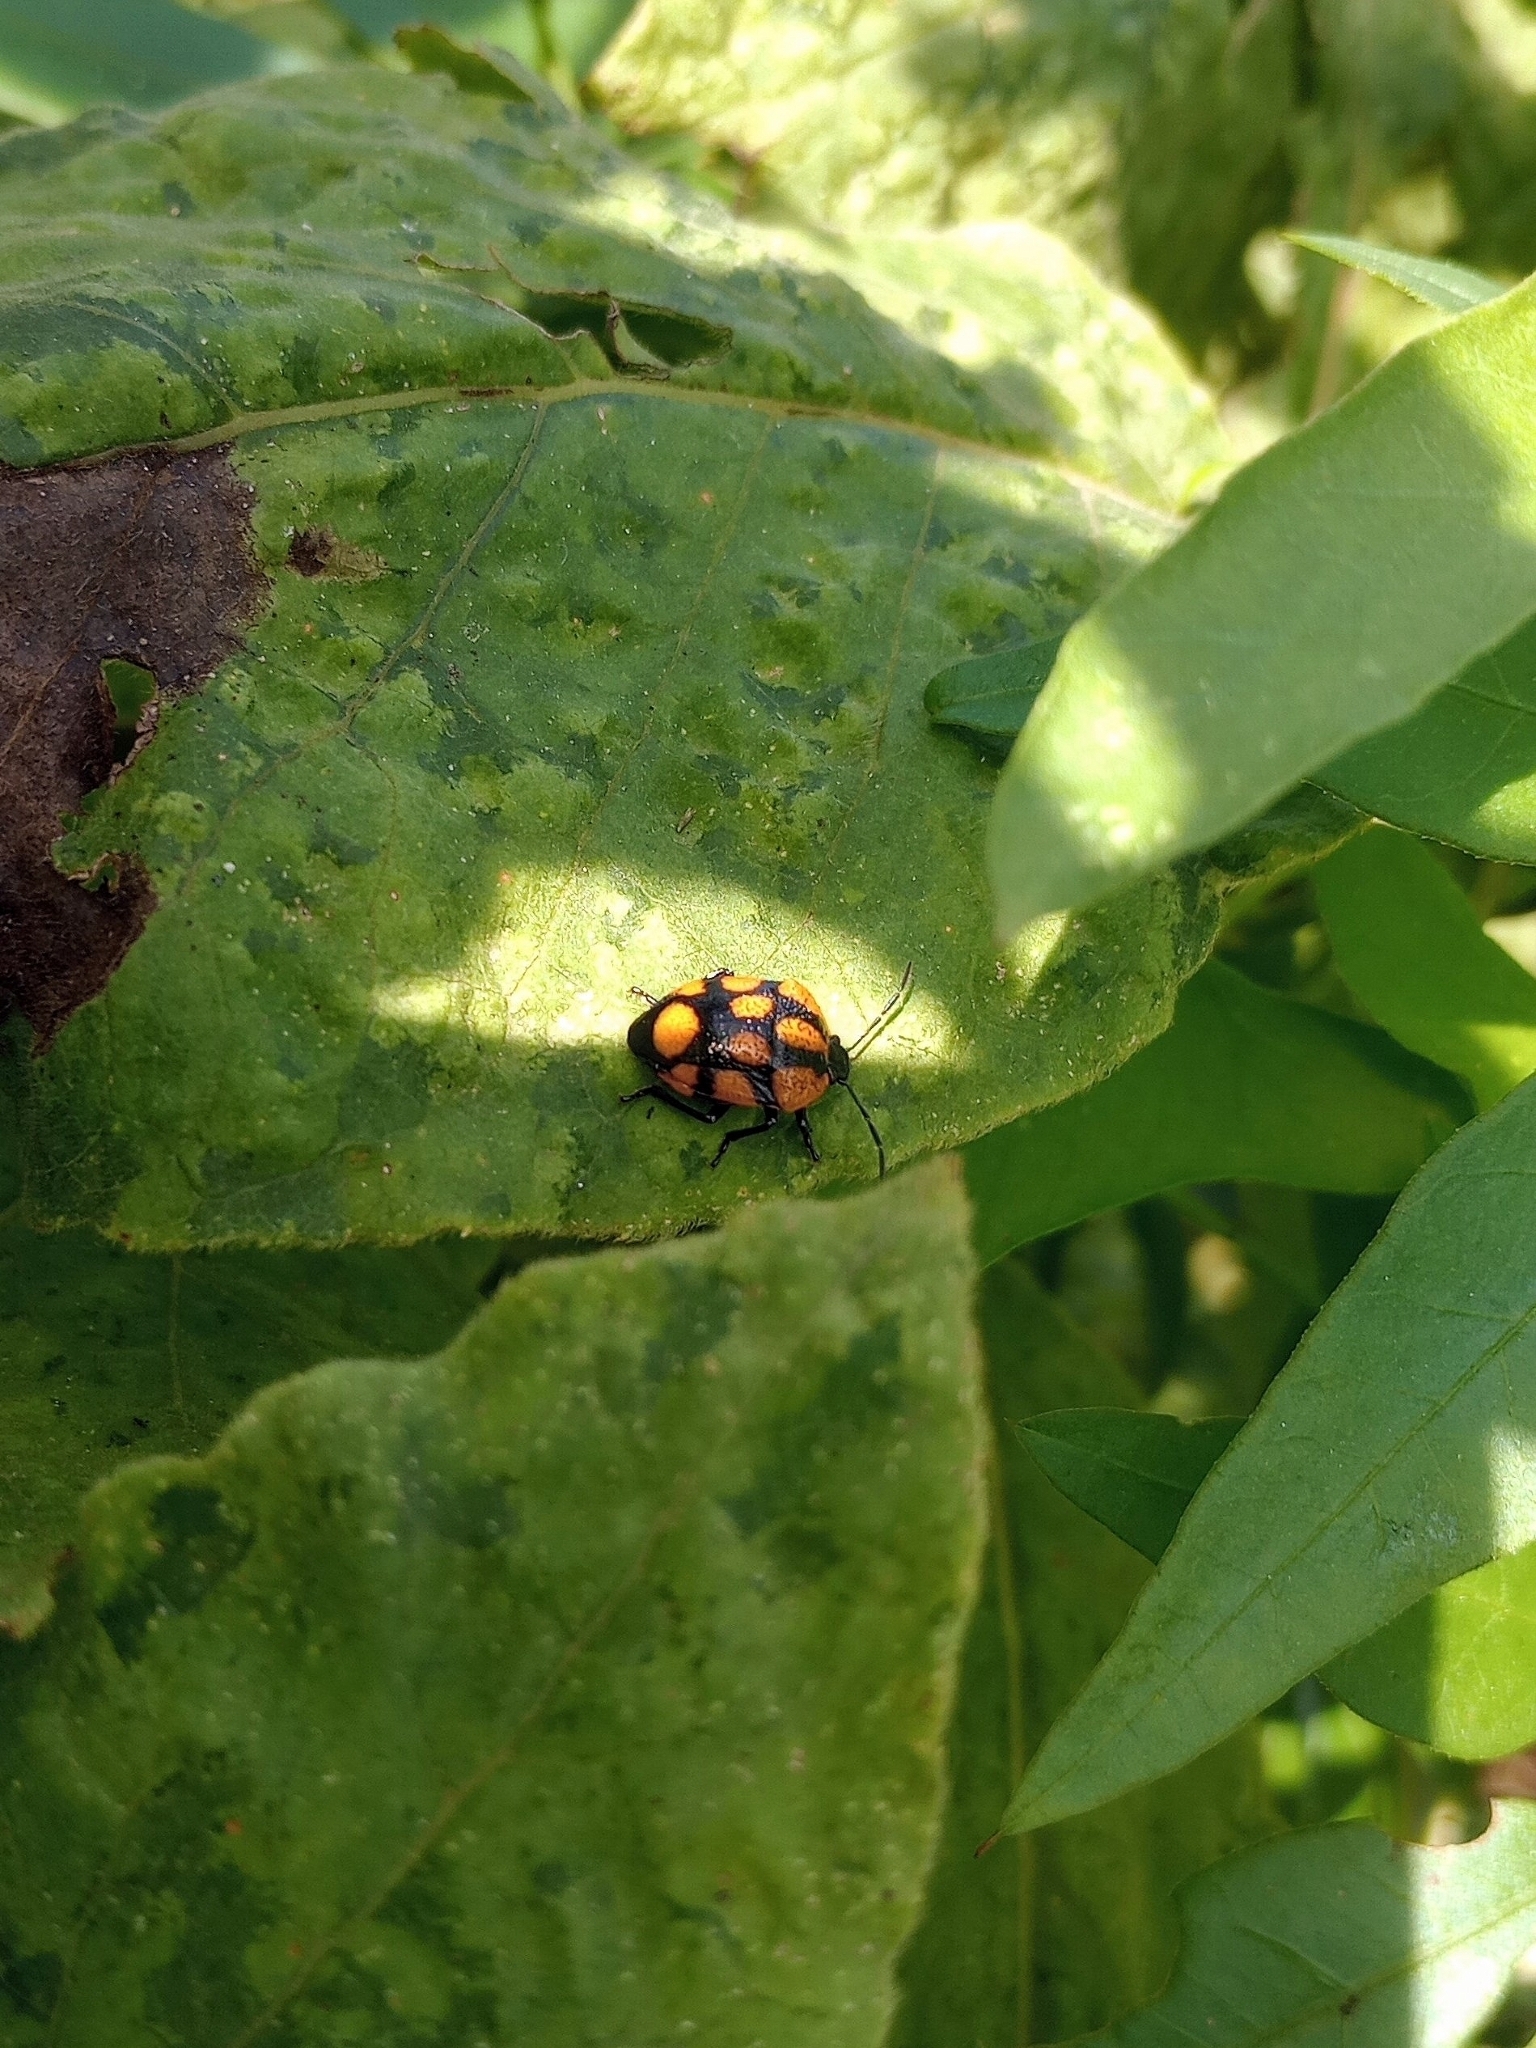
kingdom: Animalia
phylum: Arthropoda
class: Insecta
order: Hemiptera
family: Pentatomidae
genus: Stiretrus
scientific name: Stiretrus
